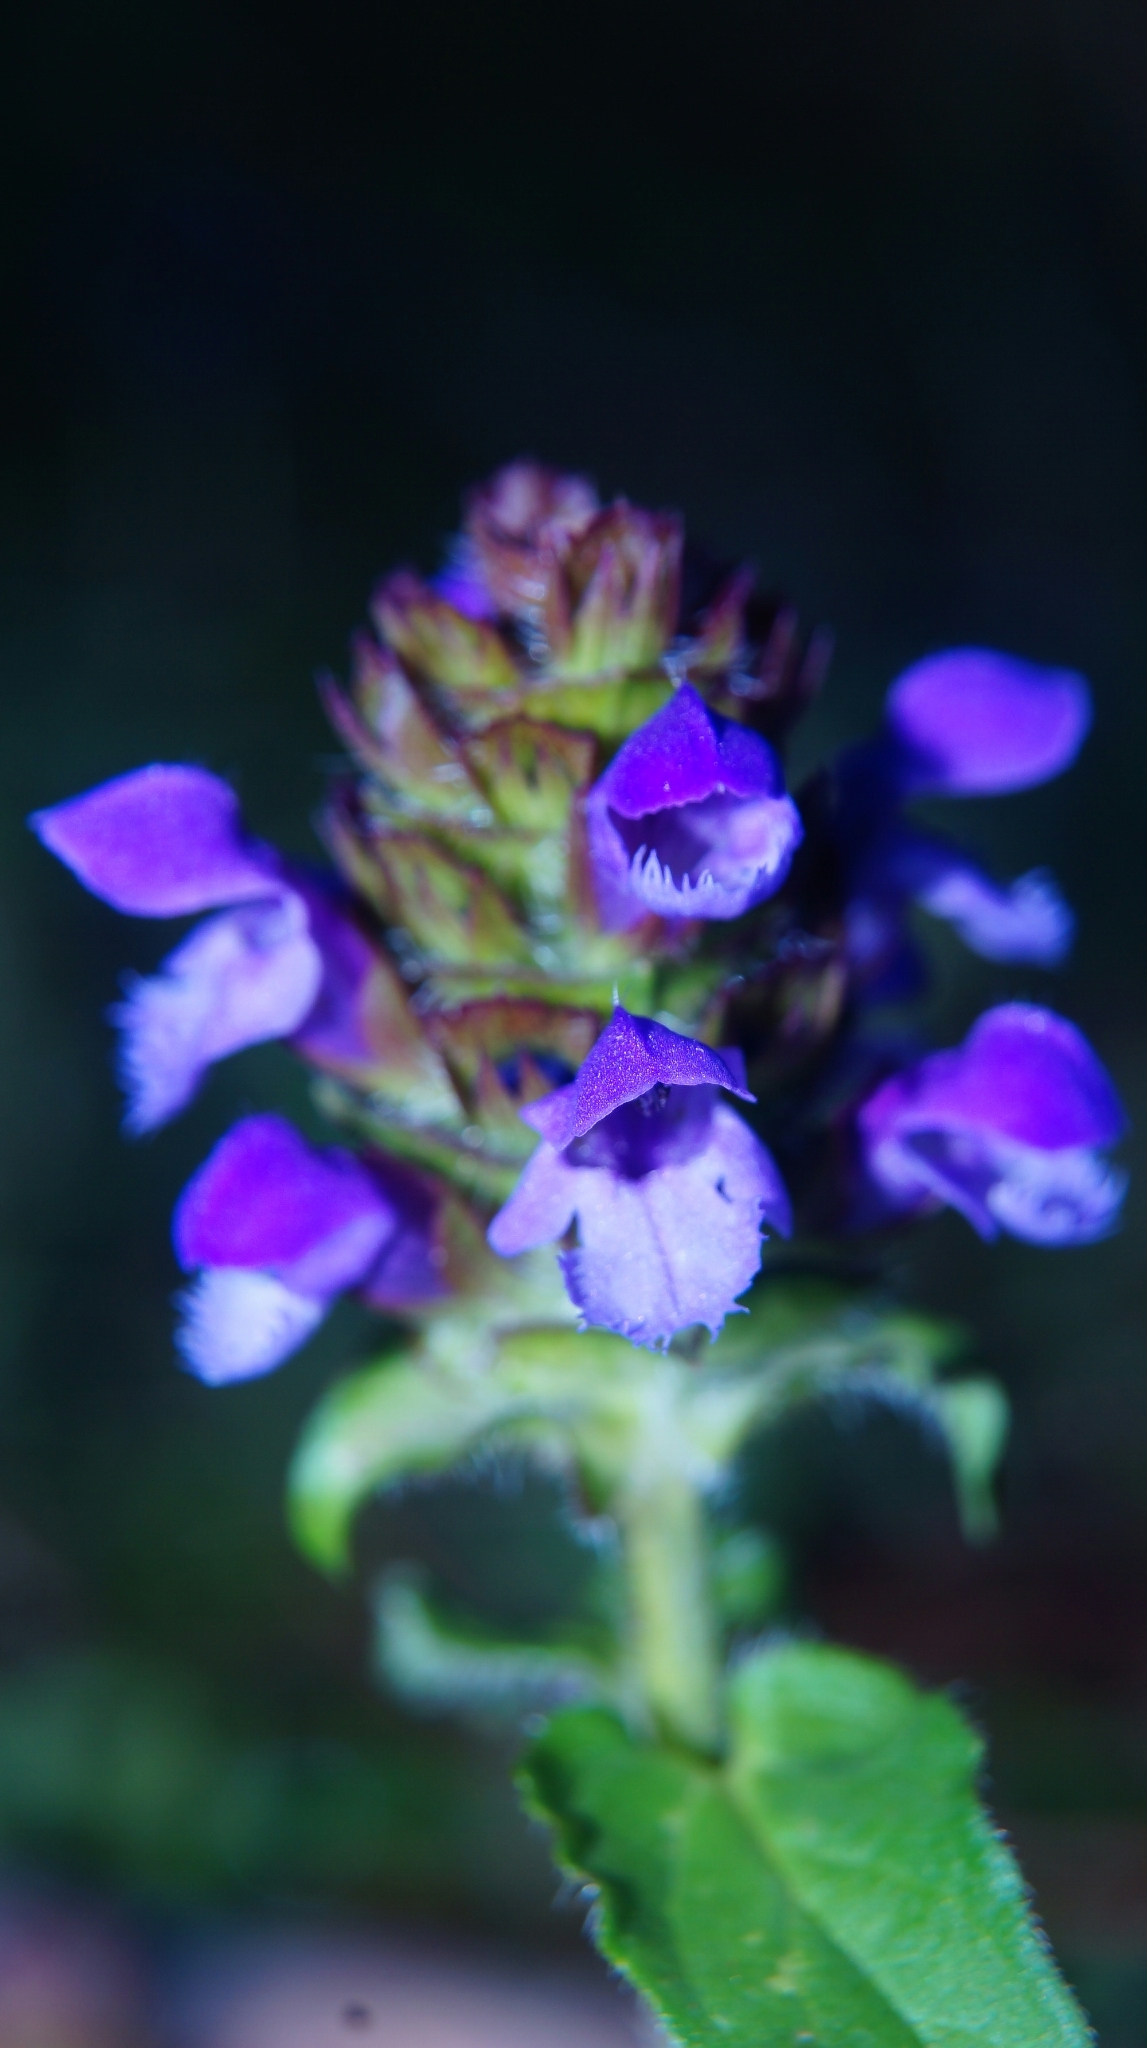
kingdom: Plantae
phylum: Tracheophyta
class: Magnoliopsida
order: Lamiales
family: Lamiaceae
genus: Prunella
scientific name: Prunella vulgaris
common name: Heal-all
